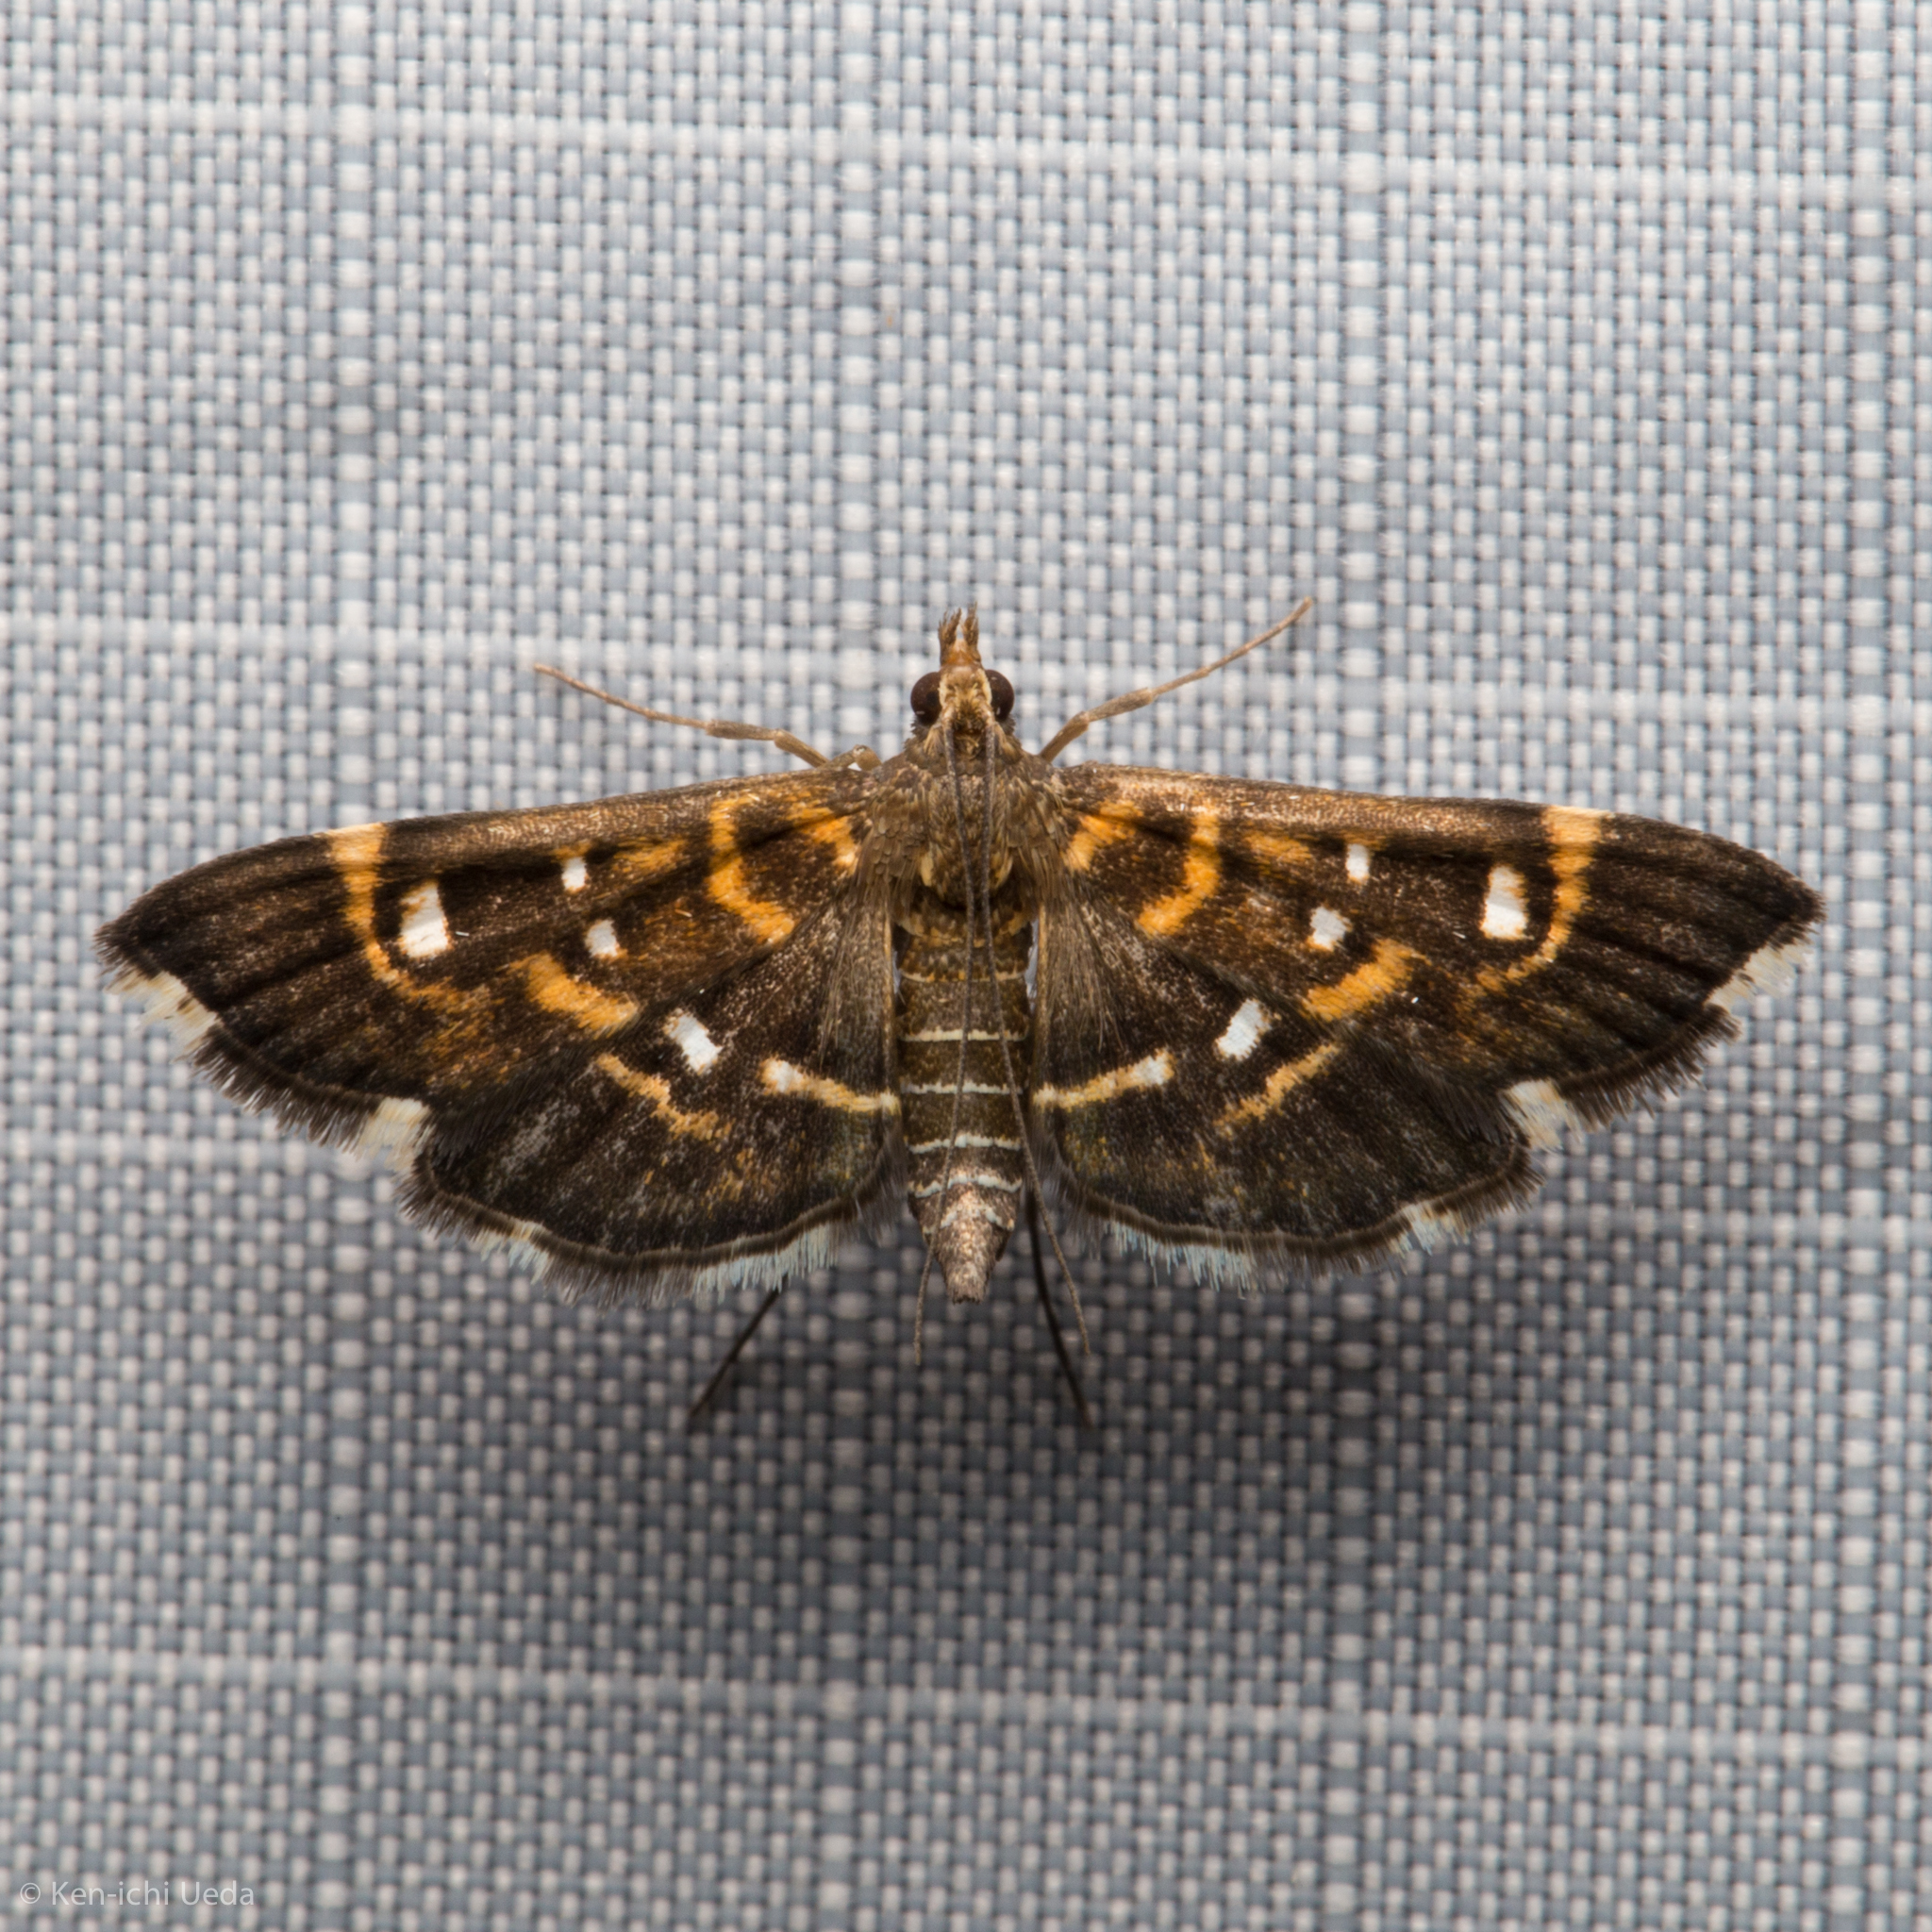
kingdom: Animalia
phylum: Arthropoda
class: Insecta
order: Lepidoptera
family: Crambidae
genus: Diathrausta
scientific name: Diathrausta harlequinalis
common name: Harlequin webworm moth
